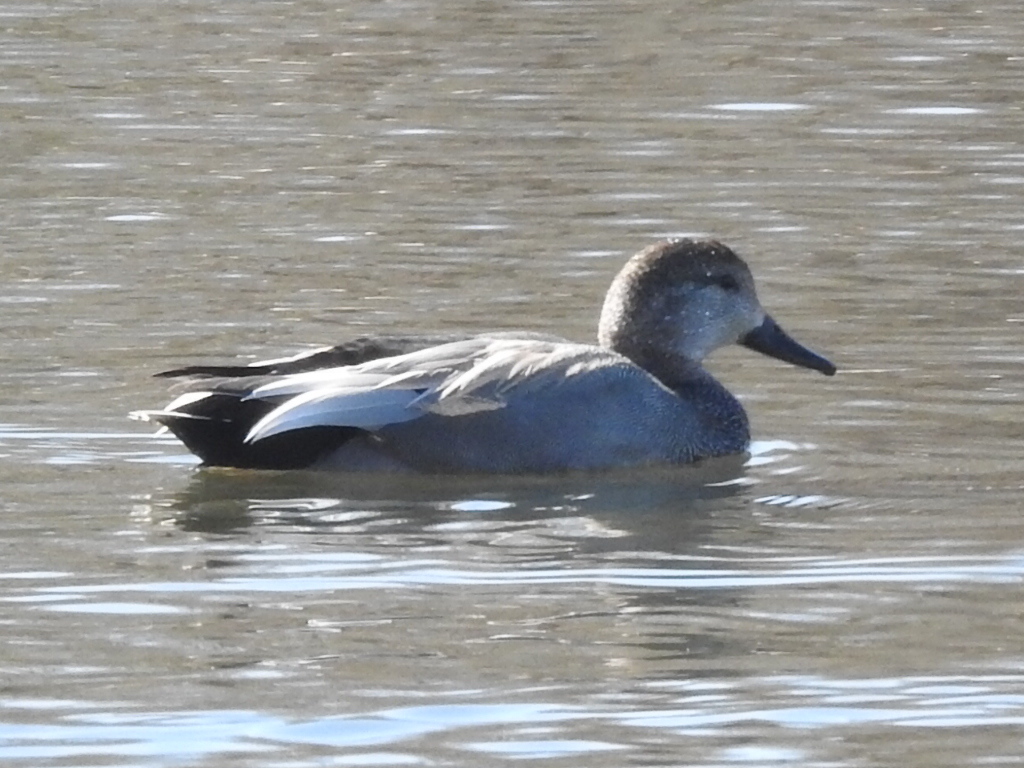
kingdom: Animalia
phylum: Chordata
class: Aves
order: Anseriformes
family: Anatidae
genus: Mareca
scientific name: Mareca strepera
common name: Gadwall
